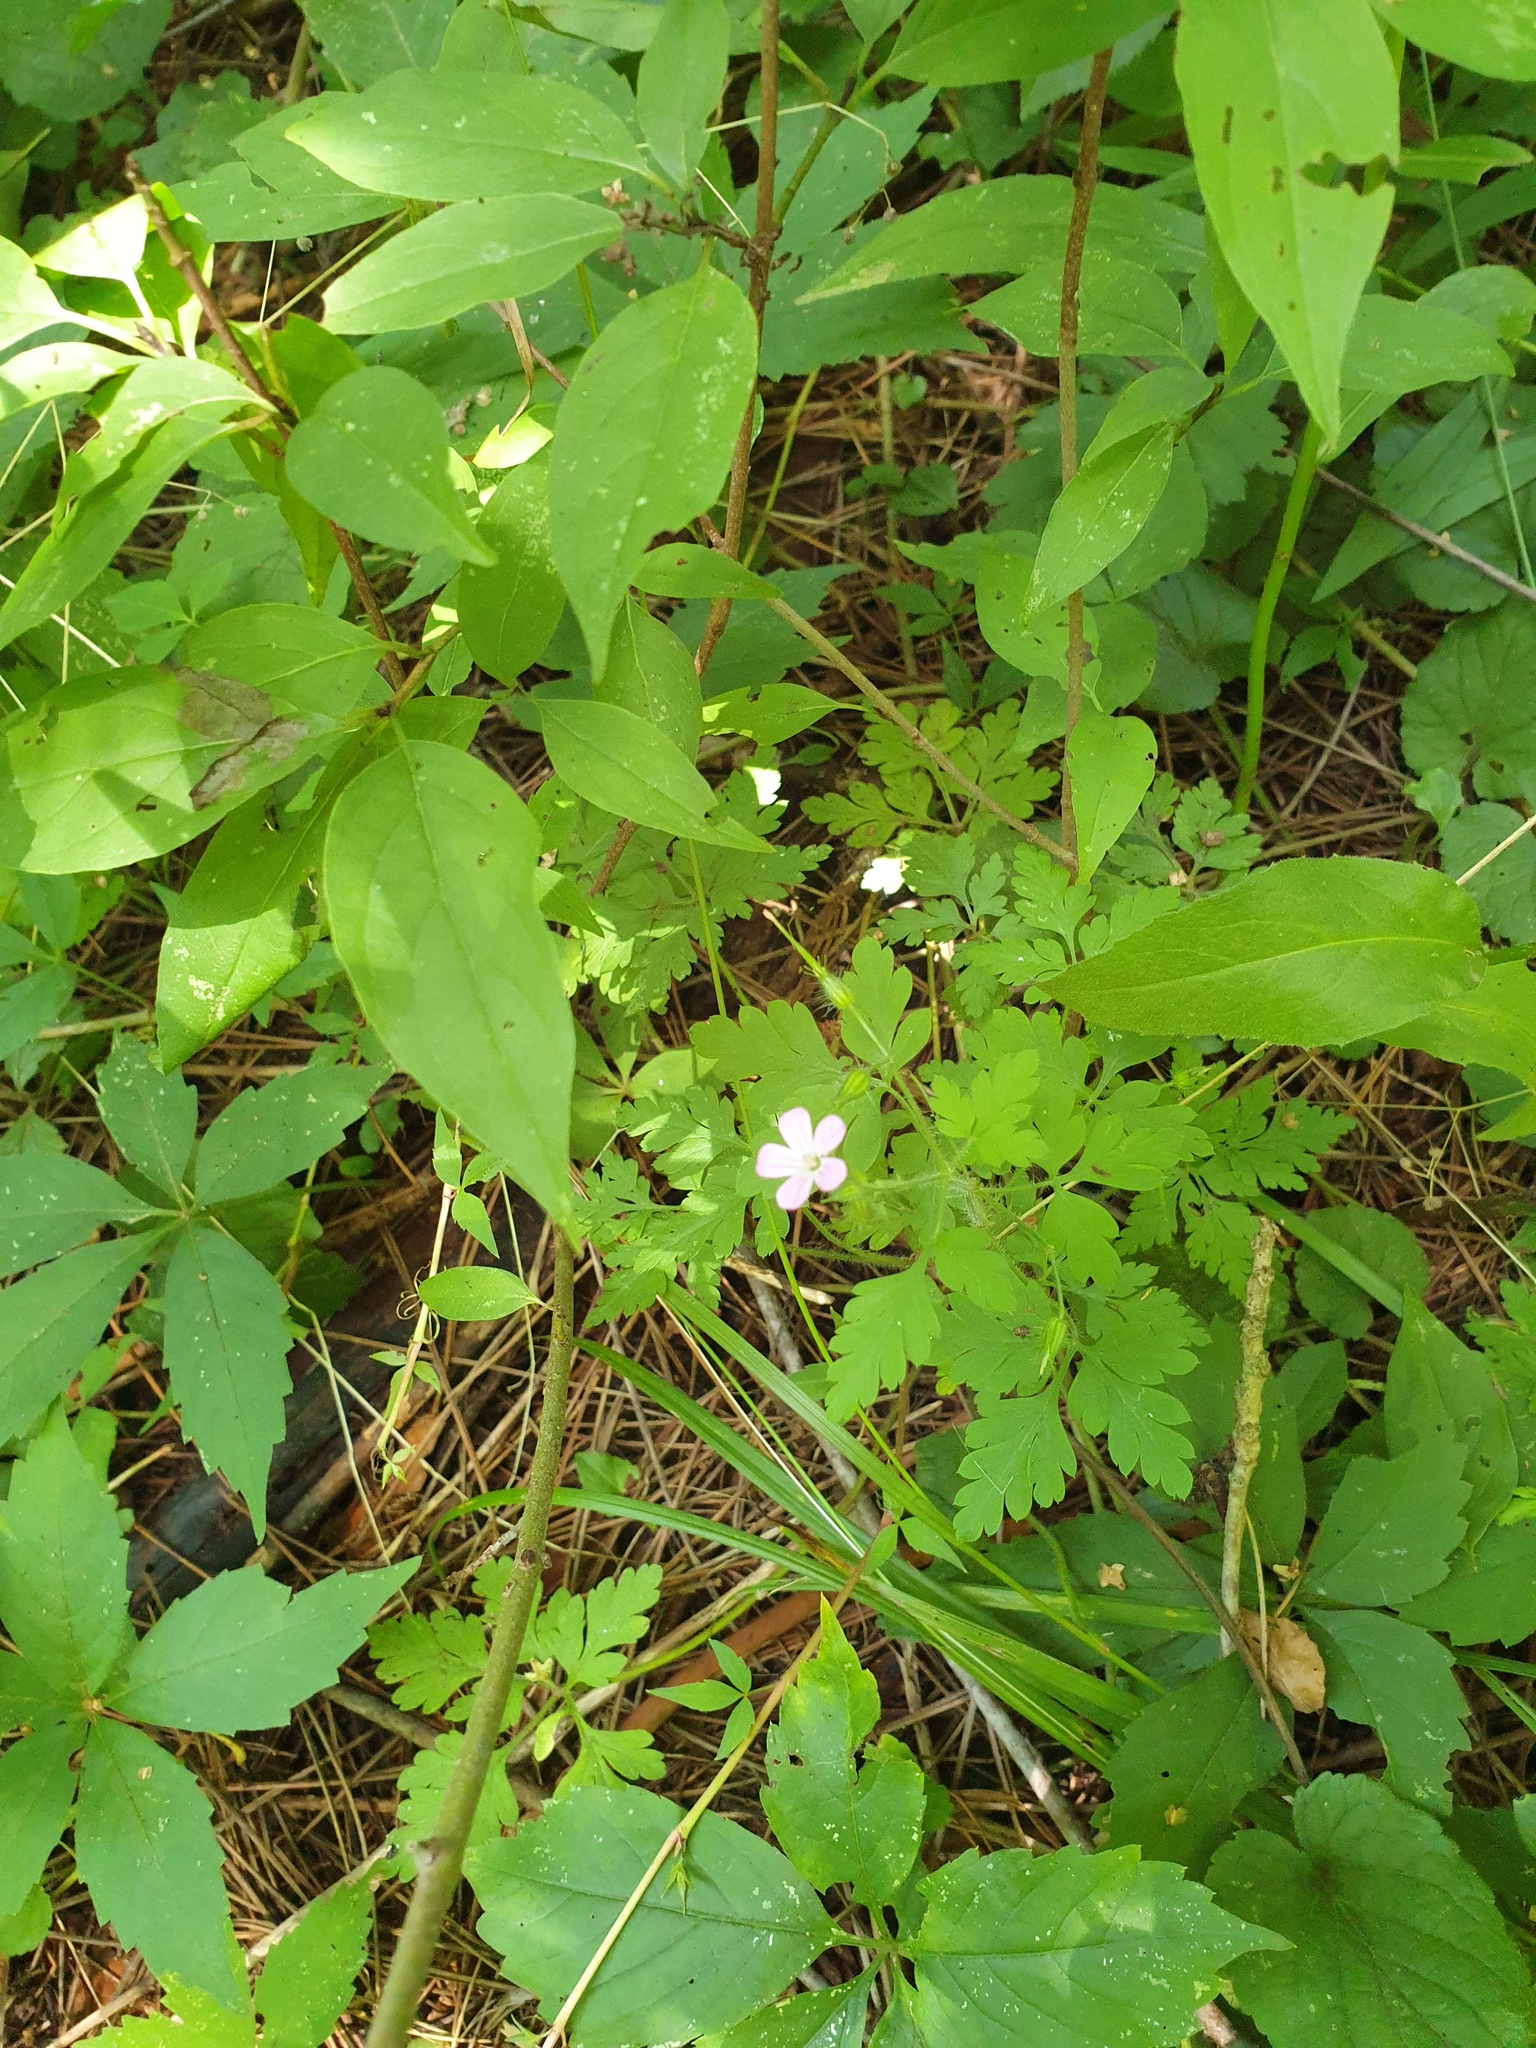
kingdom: Plantae
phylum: Tracheophyta
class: Magnoliopsida
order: Geraniales
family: Geraniaceae
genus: Geranium
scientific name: Geranium robertianum
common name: Herb-robert
